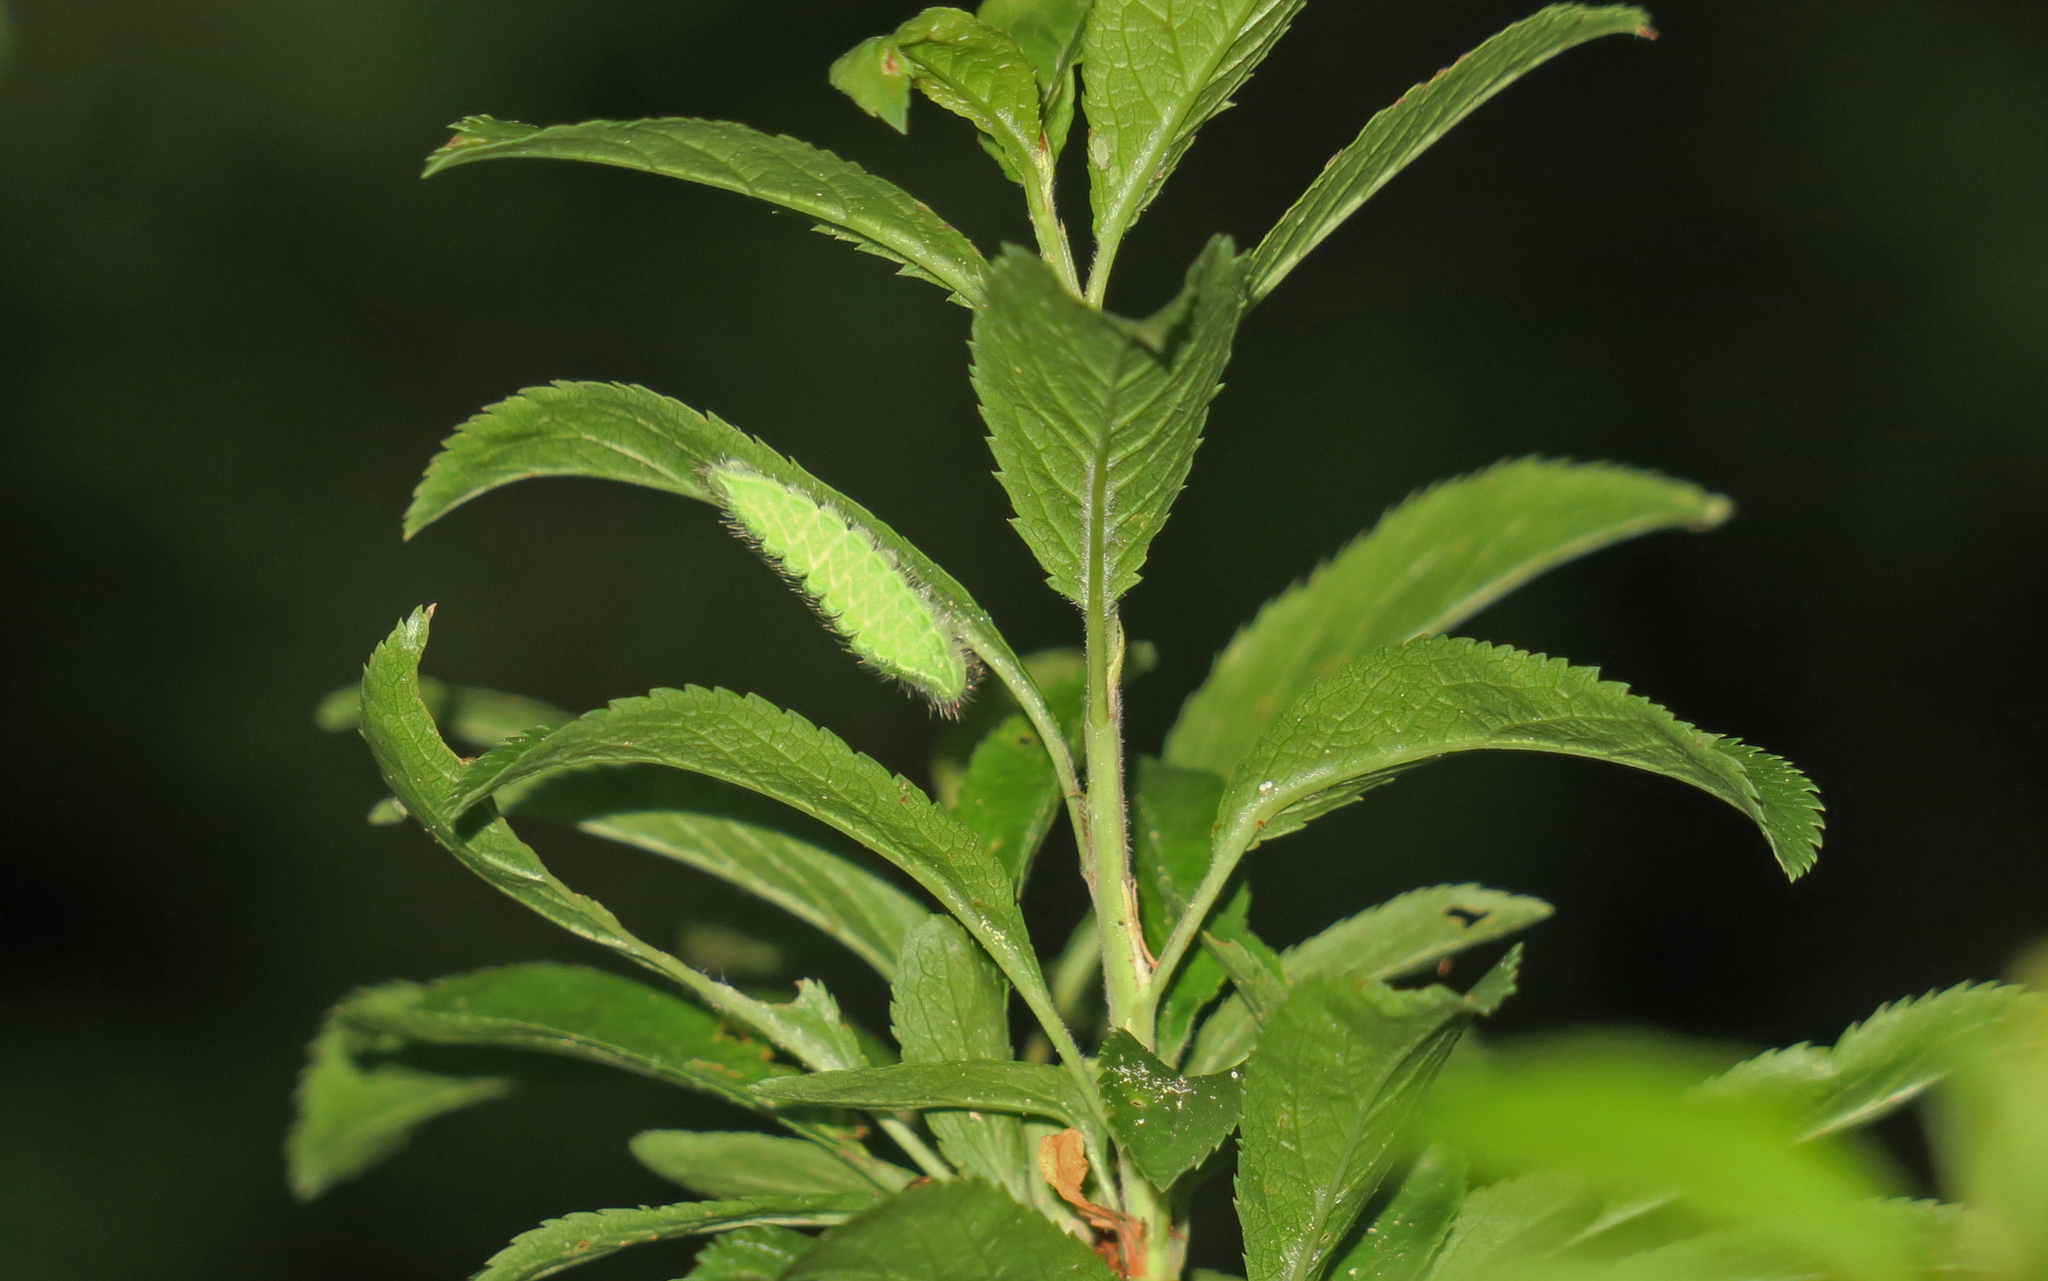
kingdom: Animalia
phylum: Arthropoda
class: Insecta
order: Lepidoptera
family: Lycaenidae
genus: Thecla
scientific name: Thecla betulae
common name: Brown hairstreak
